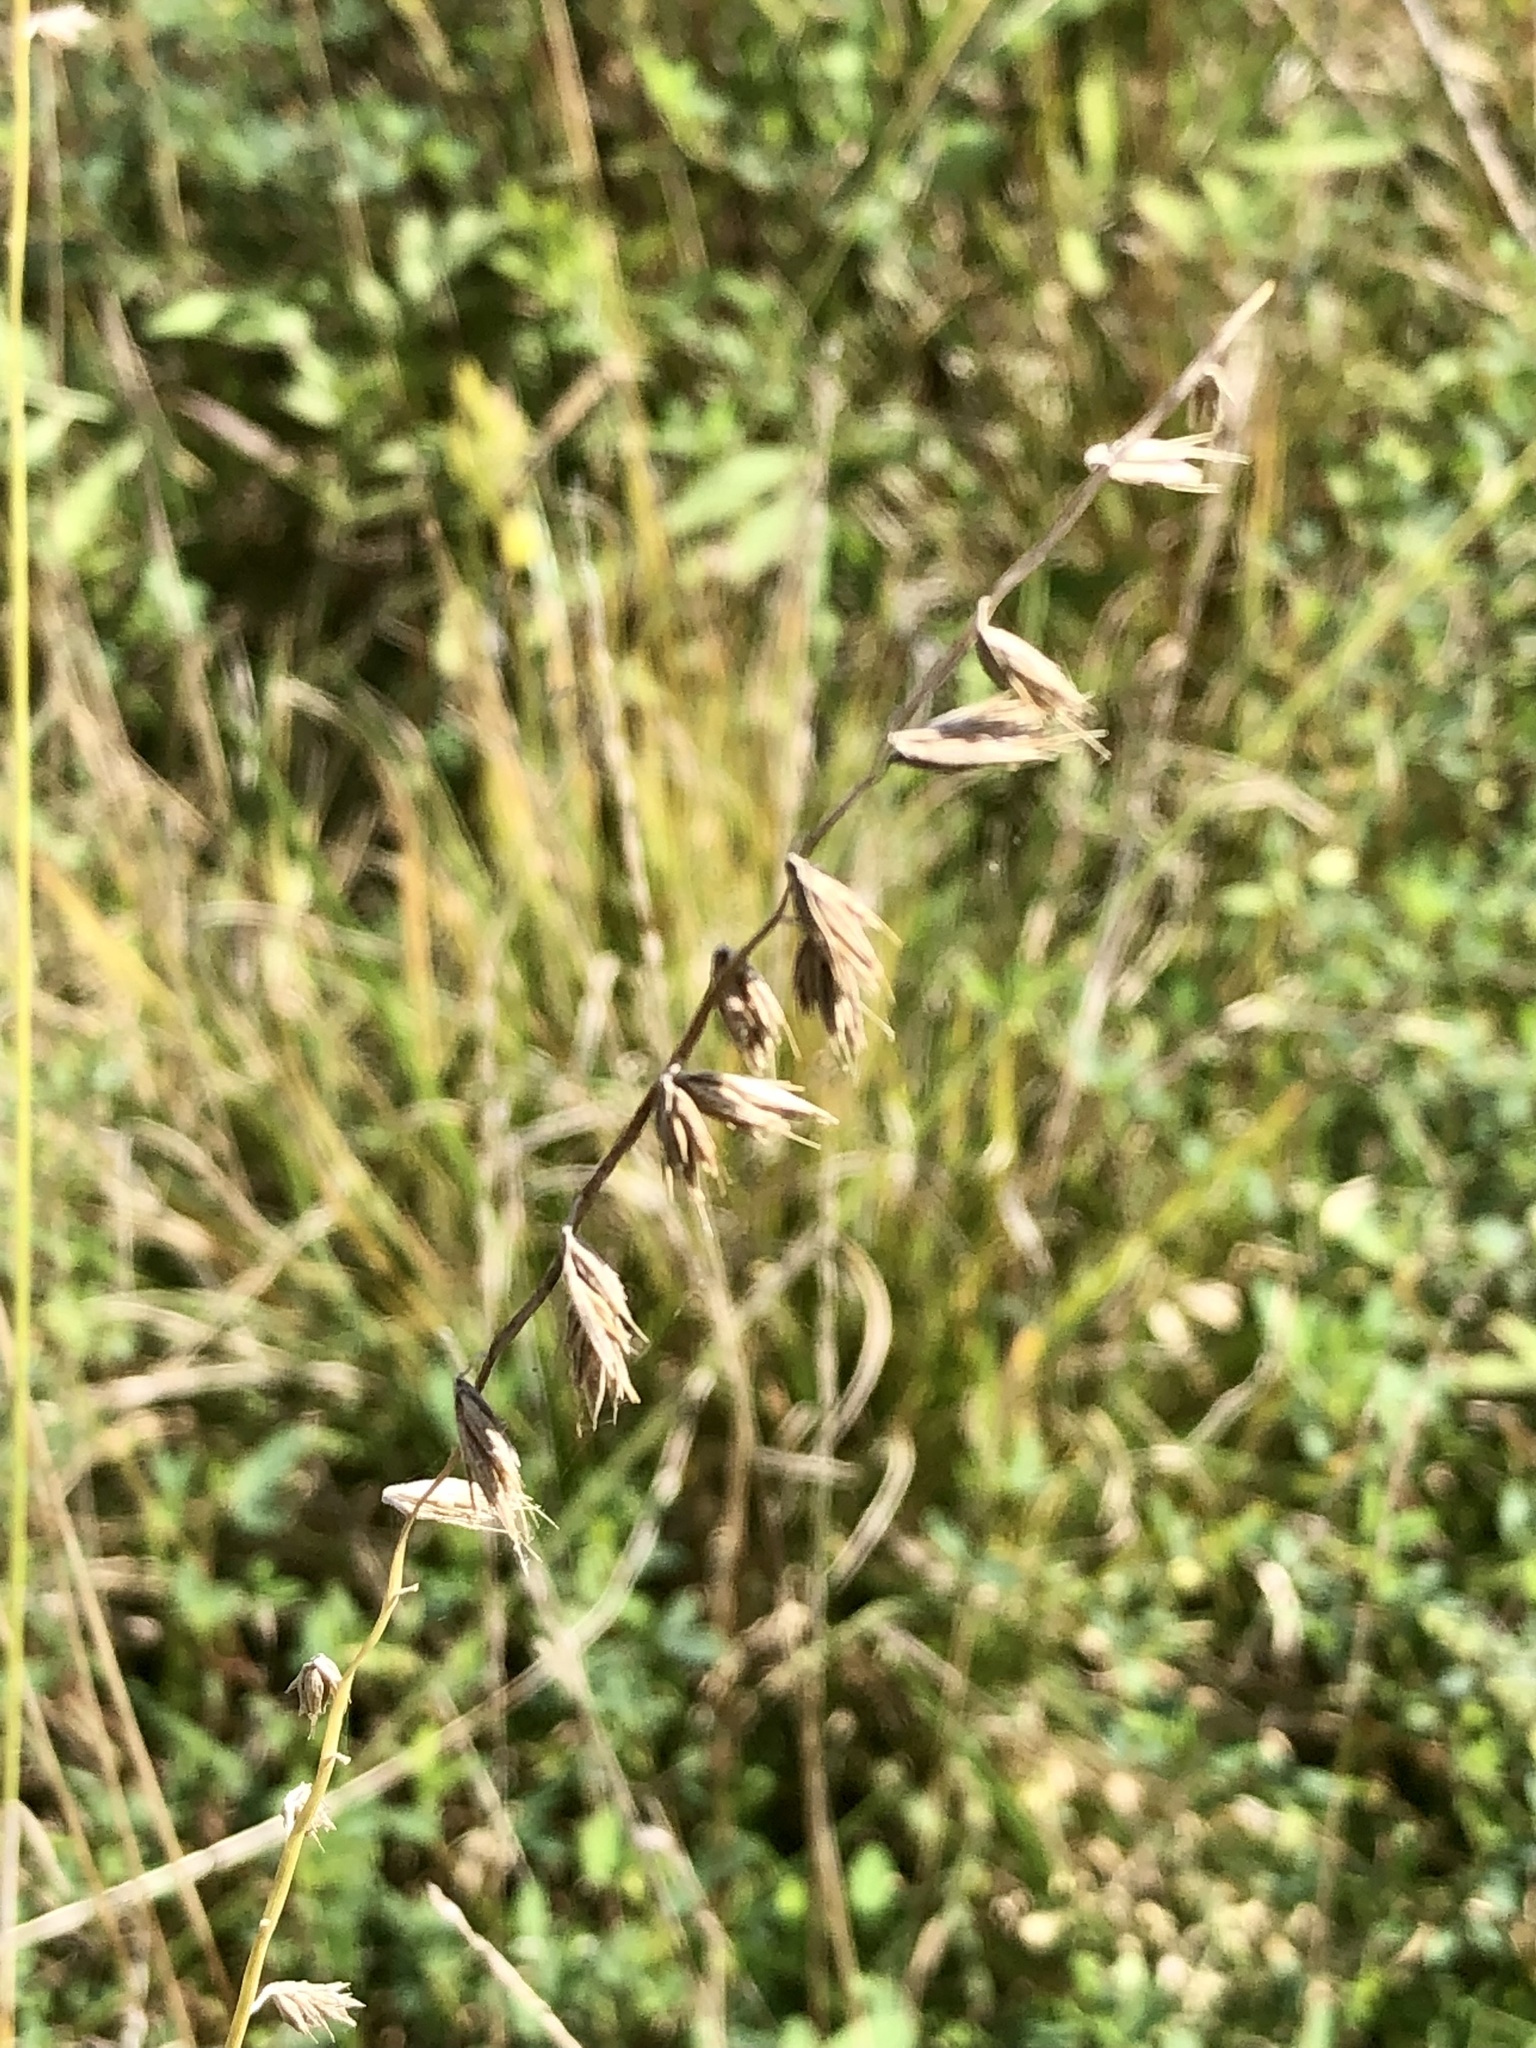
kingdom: Plantae
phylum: Tracheophyta
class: Liliopsida
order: Poales
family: Poaceae
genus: Bouteloua
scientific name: Bouteloua curtipendula
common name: Side-oats grama
